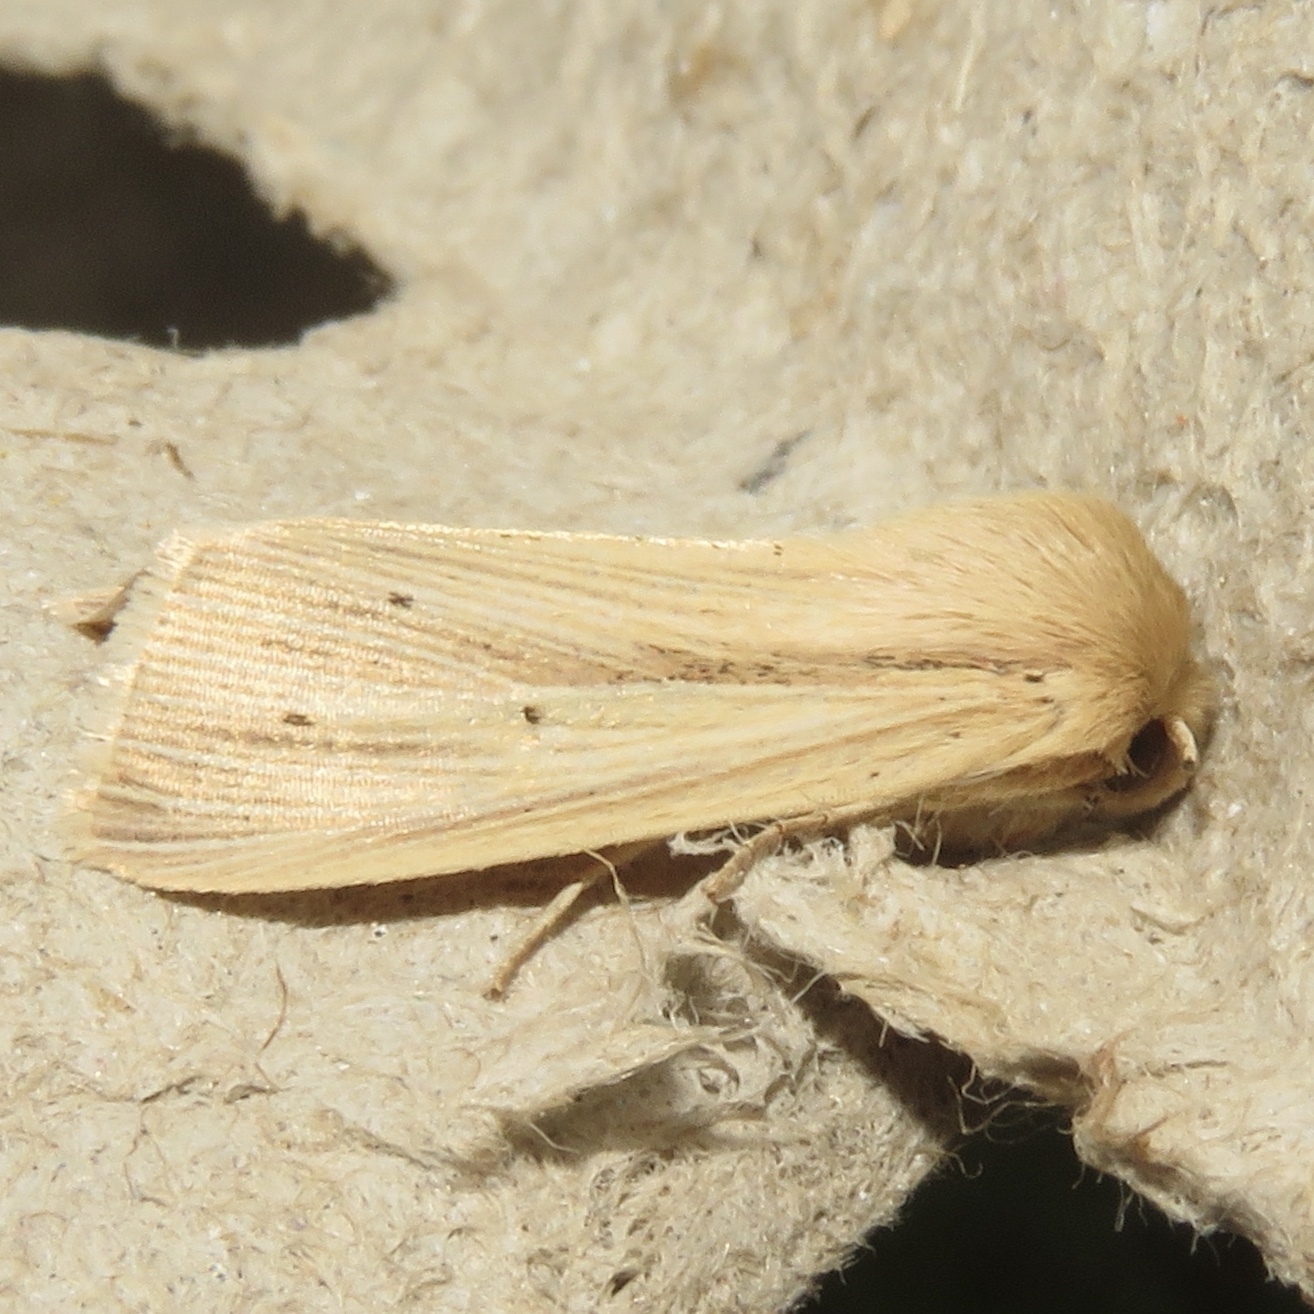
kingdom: Animalia
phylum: Arthropoda
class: Insecta
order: Lepidoptera
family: Noctuidae
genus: Mythimna
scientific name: Mythimna oxygala
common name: Lesser wainscot
